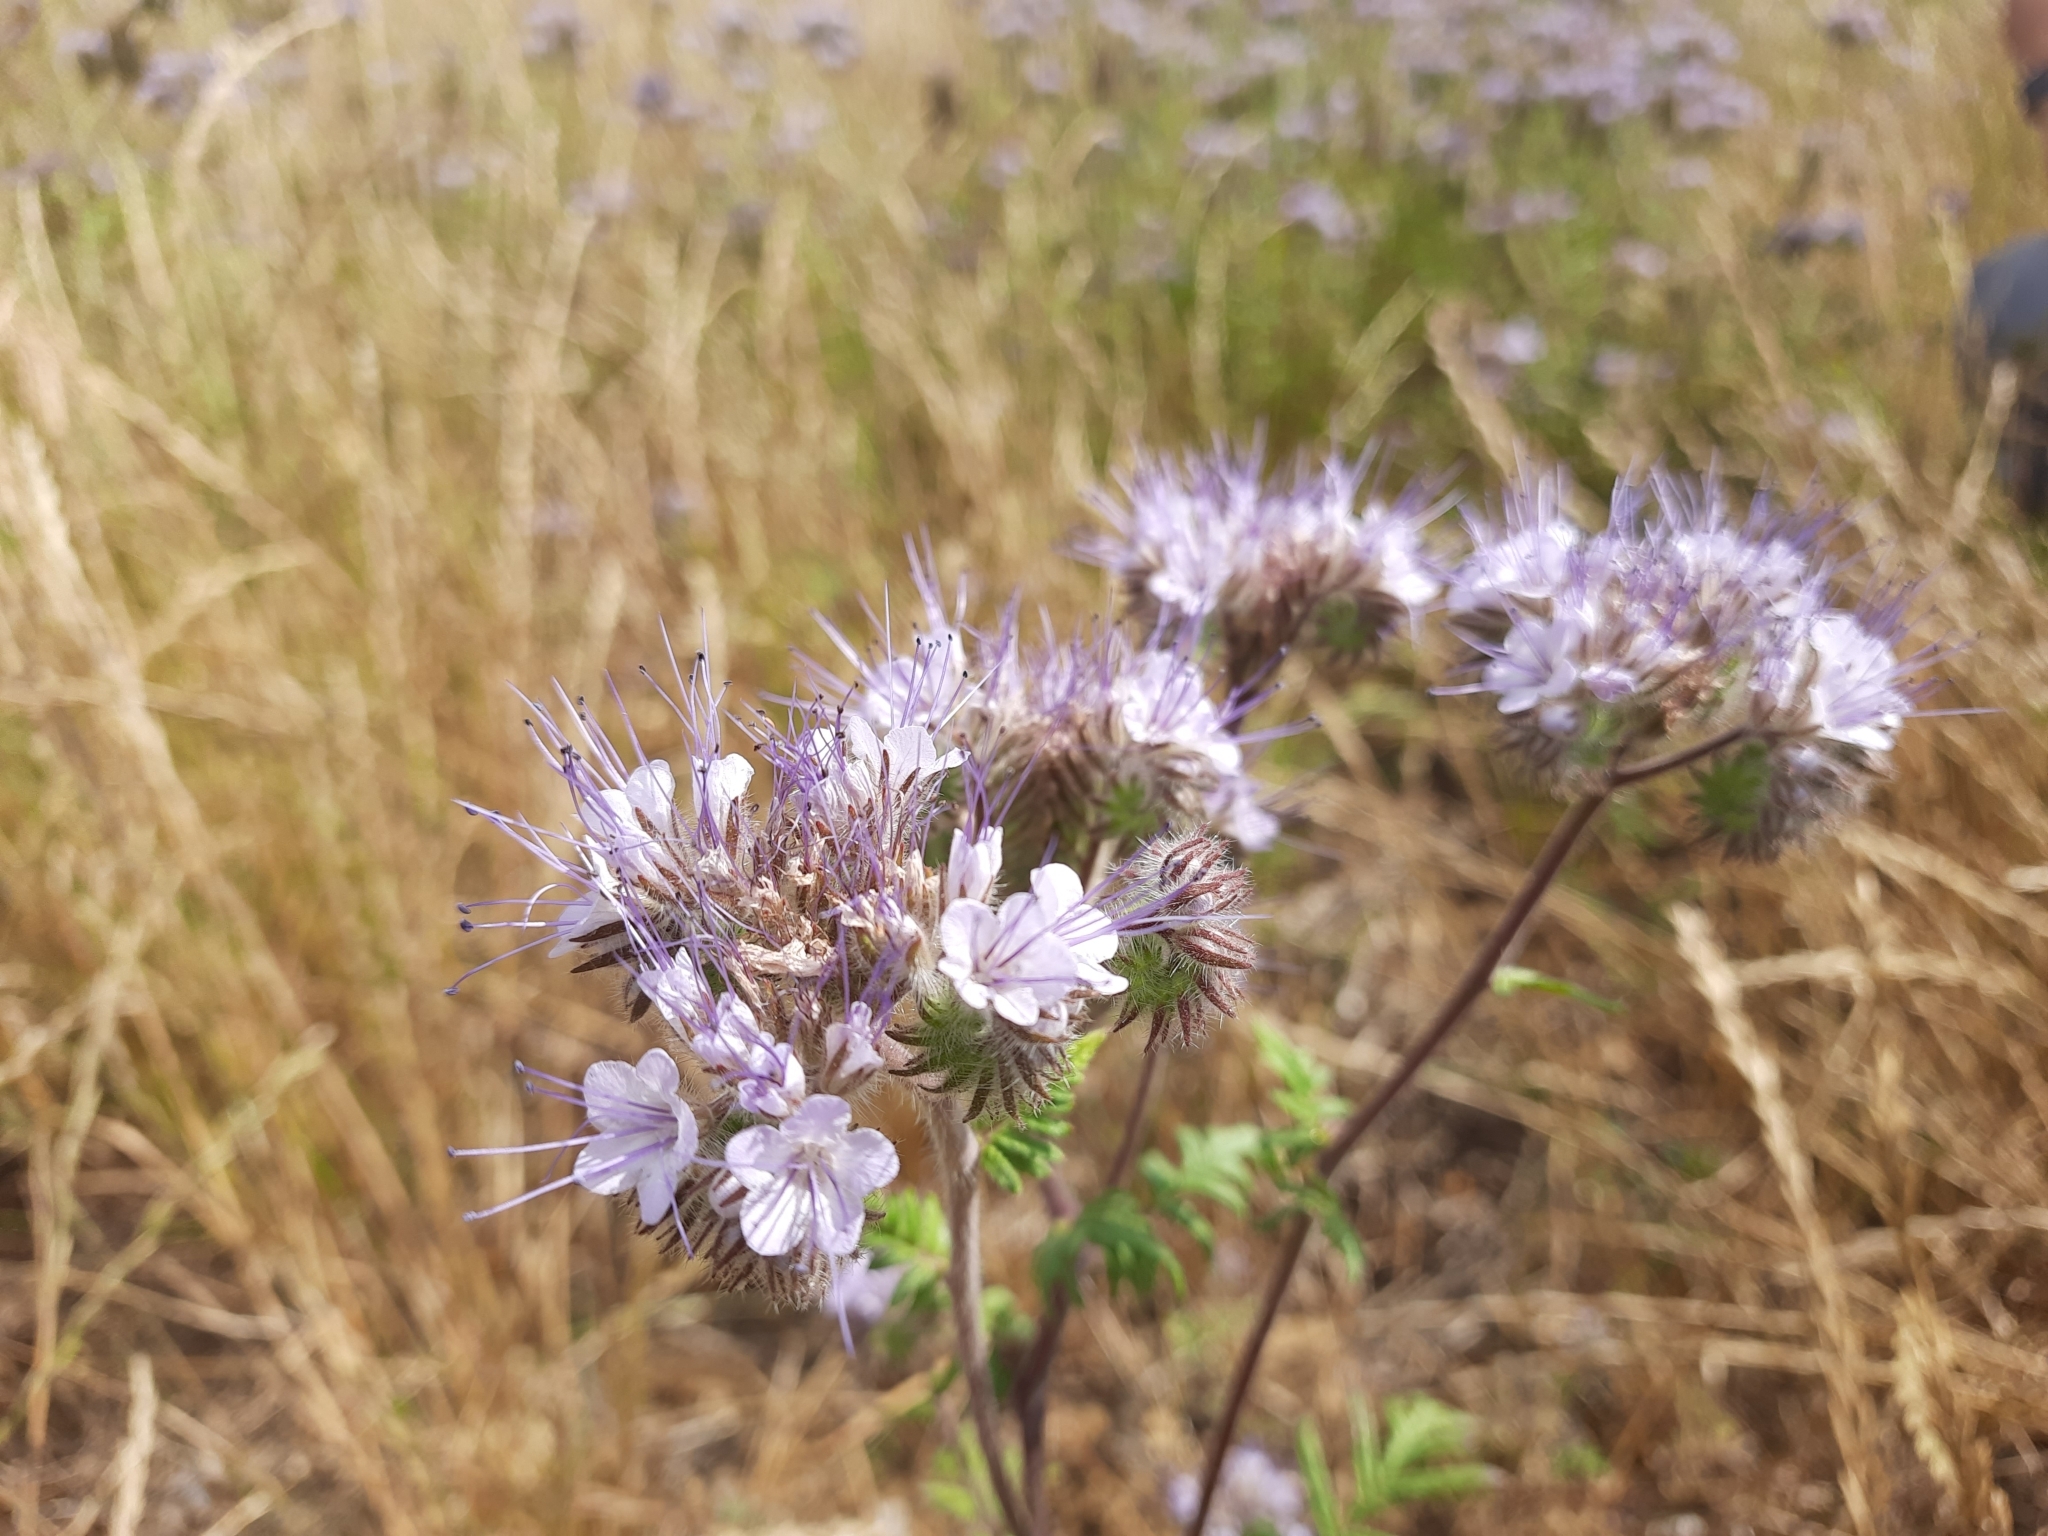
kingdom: Plantae
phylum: Tracheophyta
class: Magnoliopsida
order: Boraginales
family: Hydrophyllaceae
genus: Phacelia
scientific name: Phacelia tanacetifolia
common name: Phacelia
